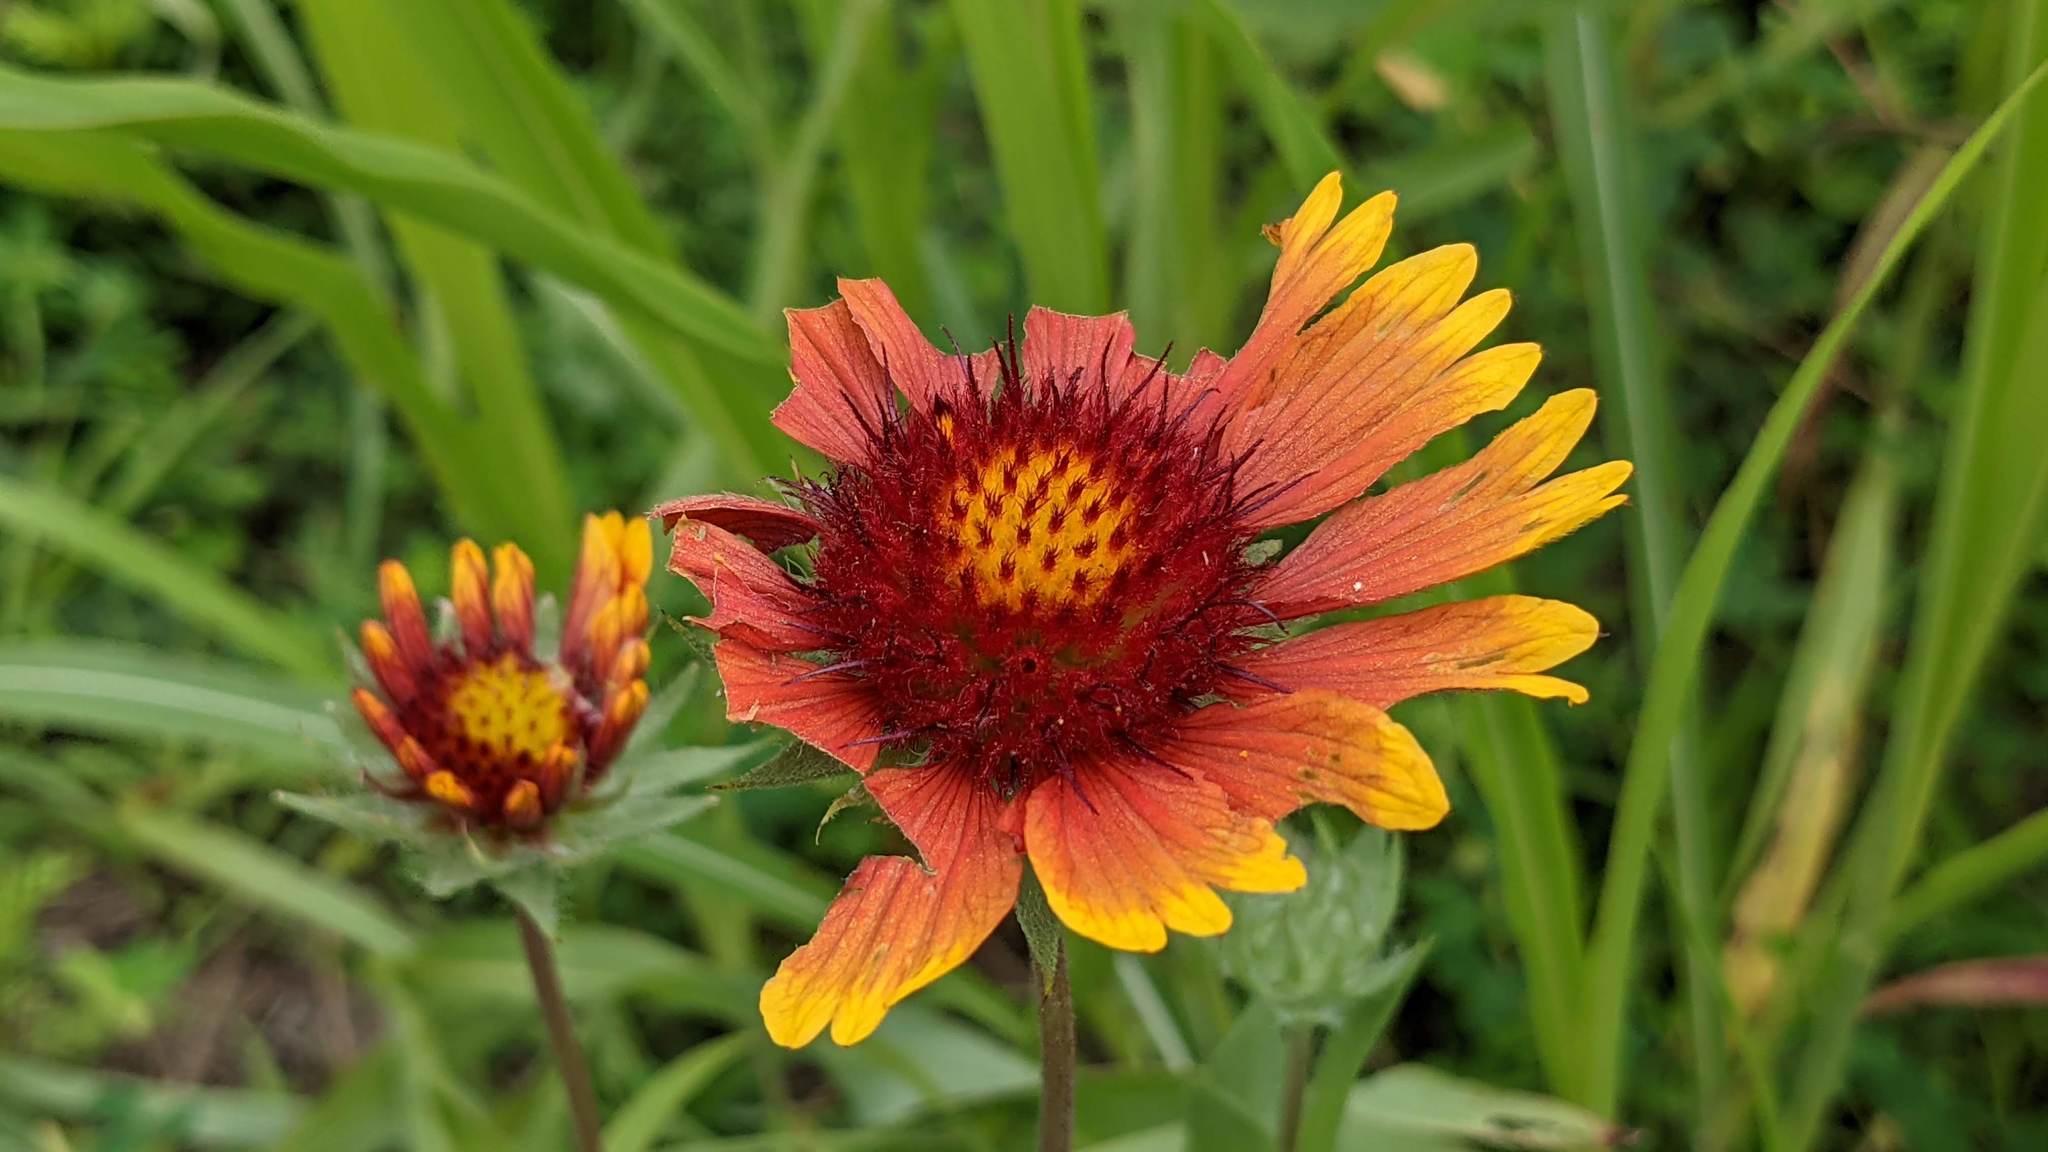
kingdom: Plantae
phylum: Tracheophyta
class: Magnoliopsida
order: Asterales
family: Asteraceae
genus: Gaillardia
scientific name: Gaillardia pulchella
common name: Firewheel
